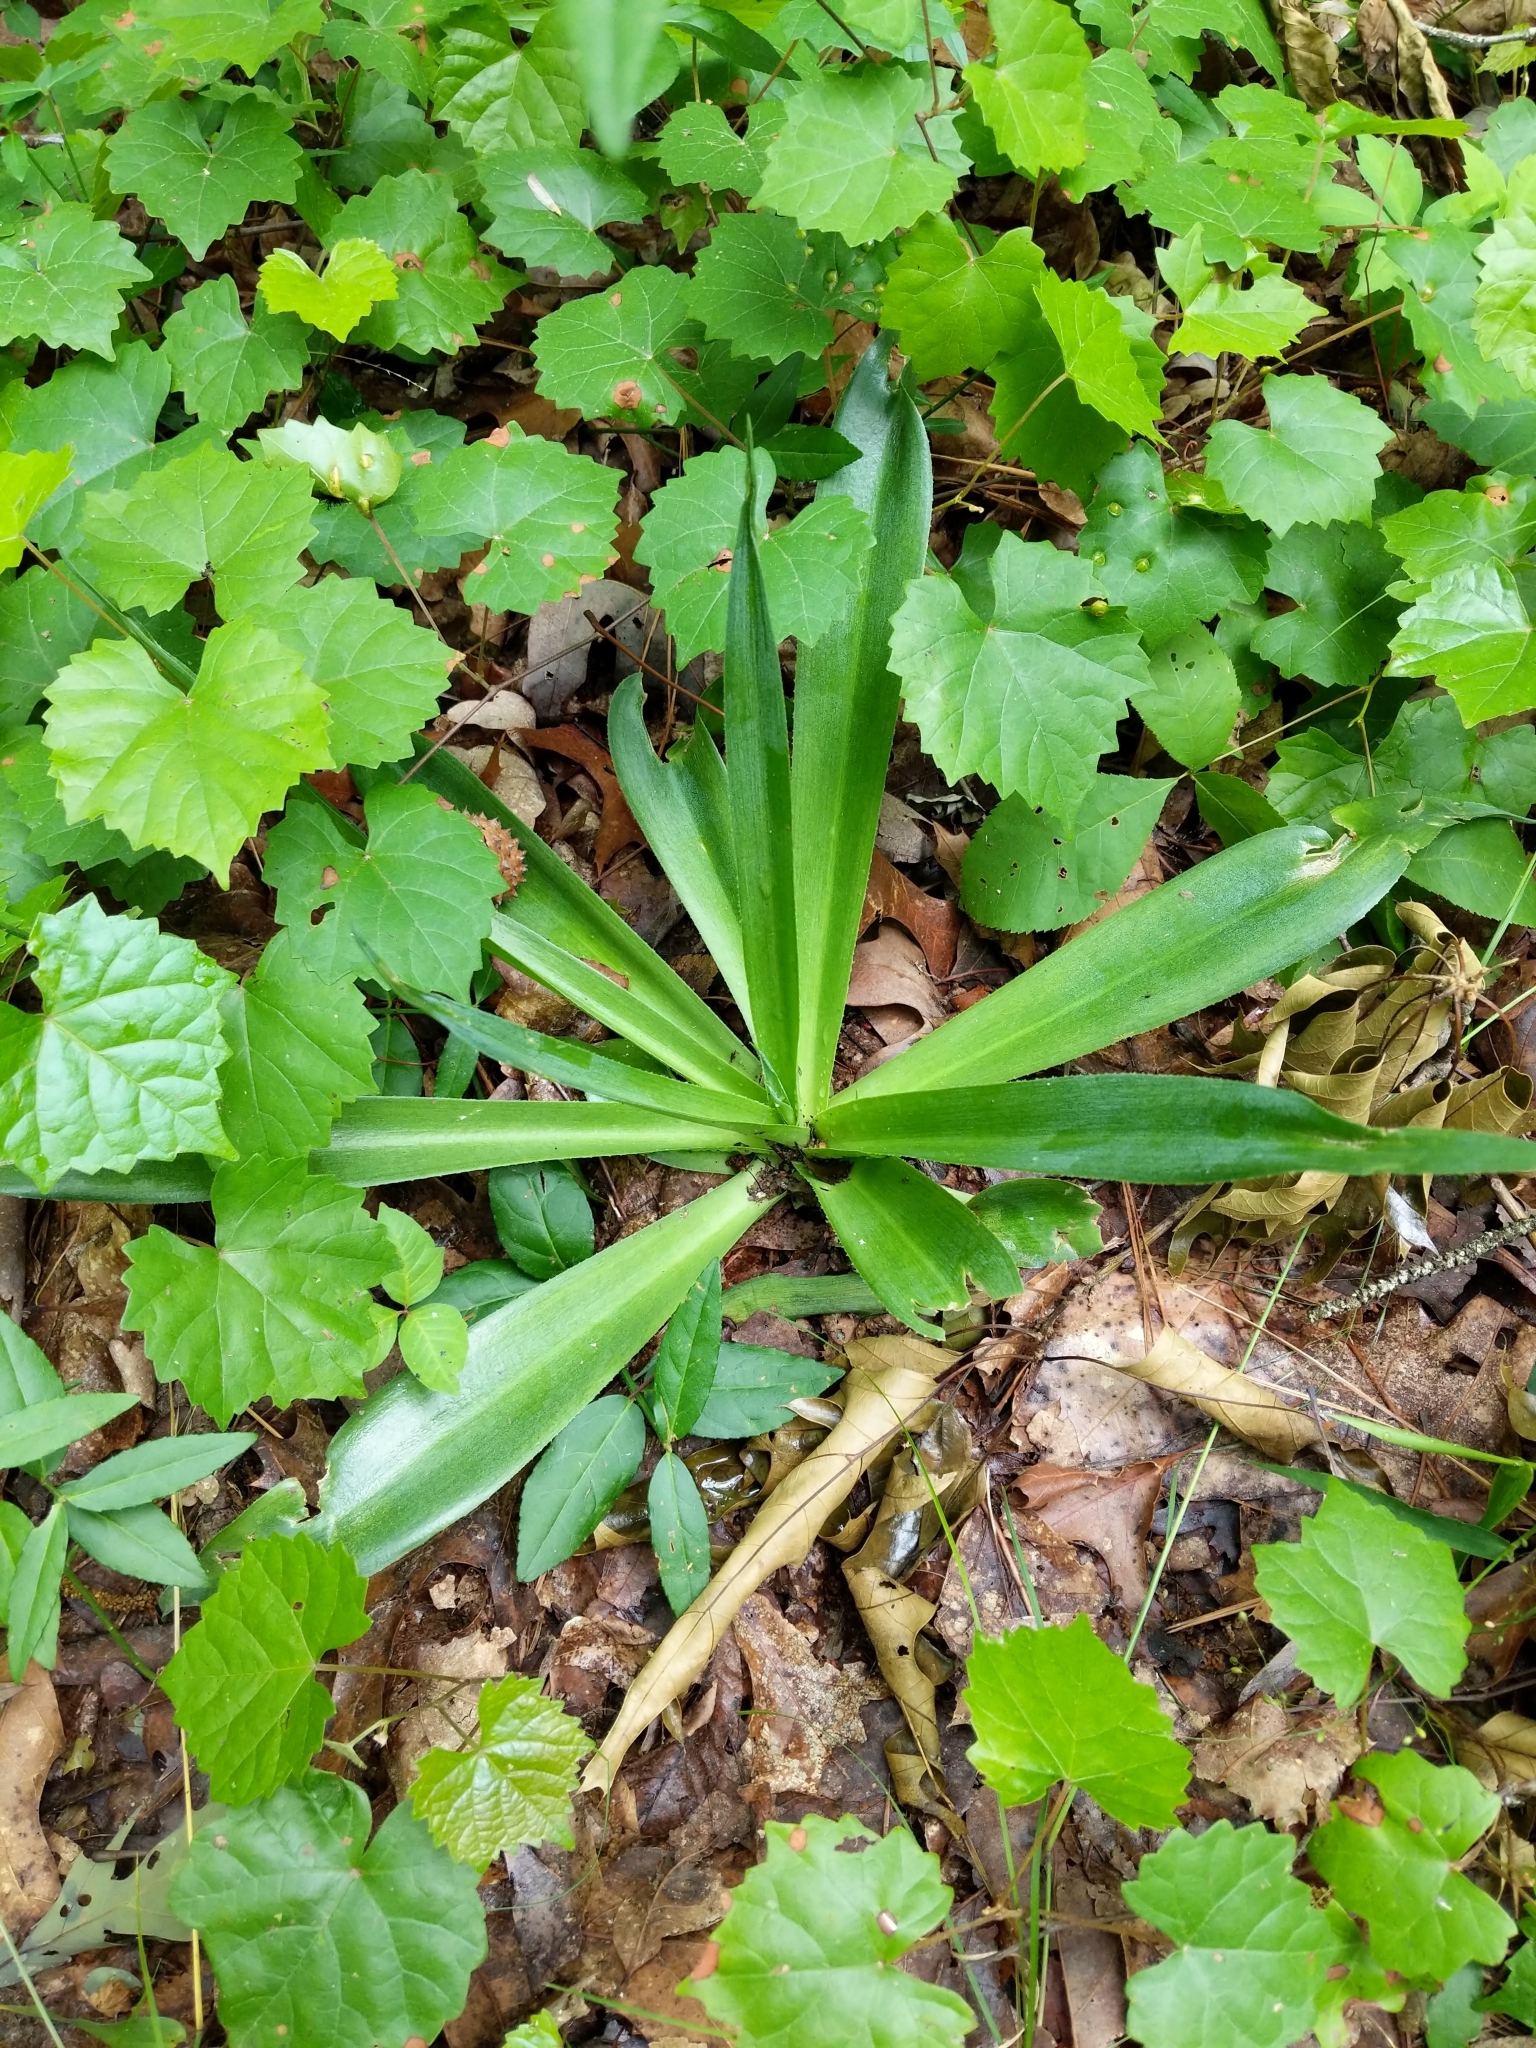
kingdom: Plantae
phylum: Tracheophyta
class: Liliopsida
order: Asparagales
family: Asparagaceae
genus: Agave
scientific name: Agave virginica
